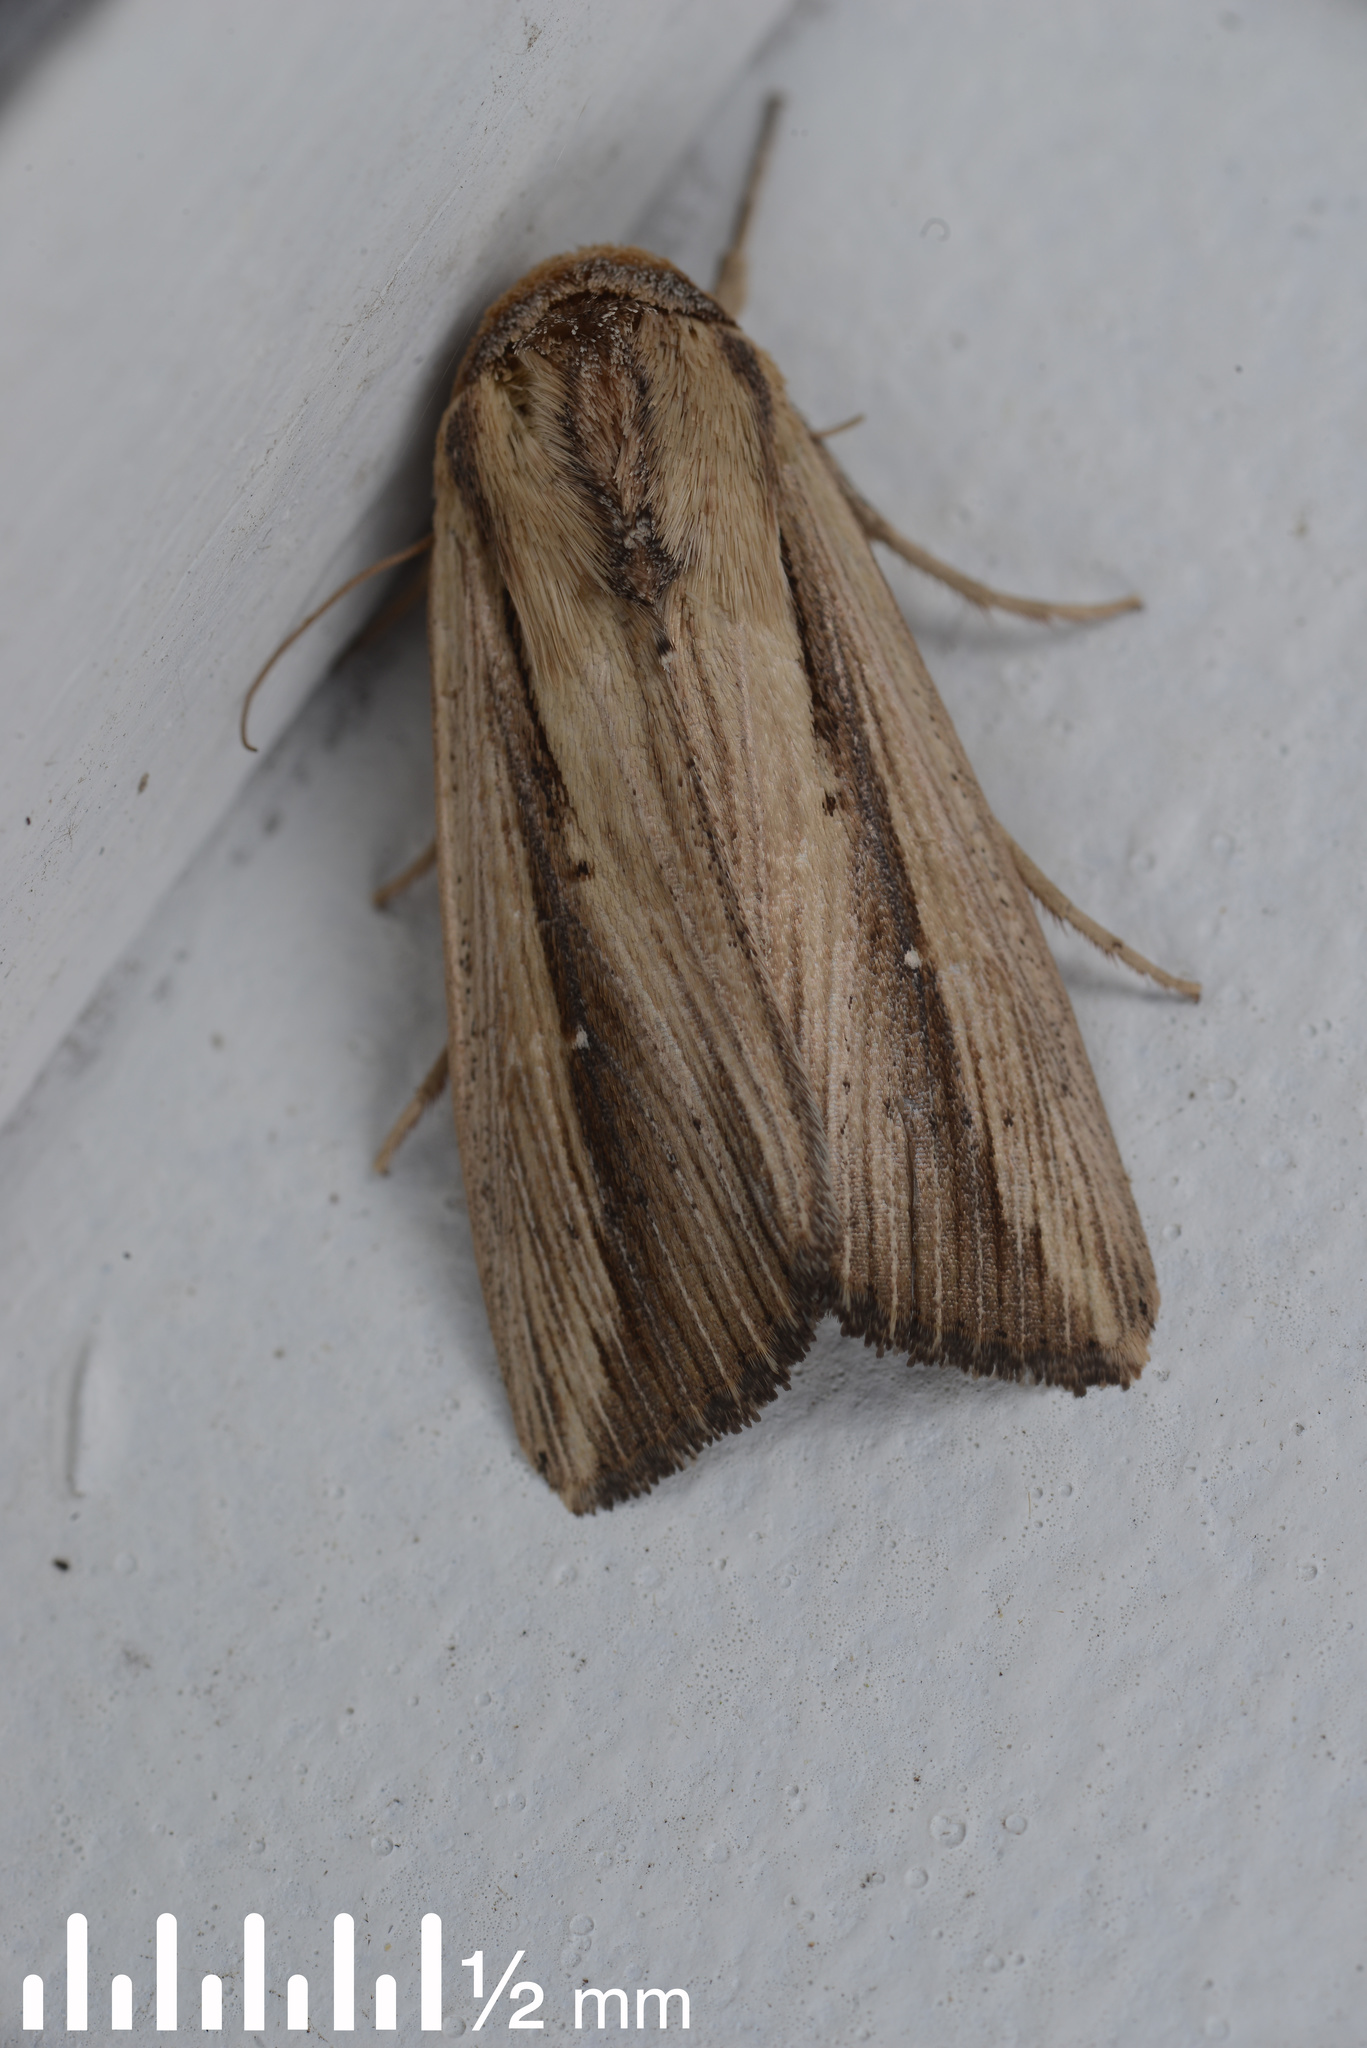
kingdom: Animalia
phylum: Arthropoda
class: Insecta
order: Lepidoptera
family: Noctuidae
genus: Leucania
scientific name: Leucania stenographa
